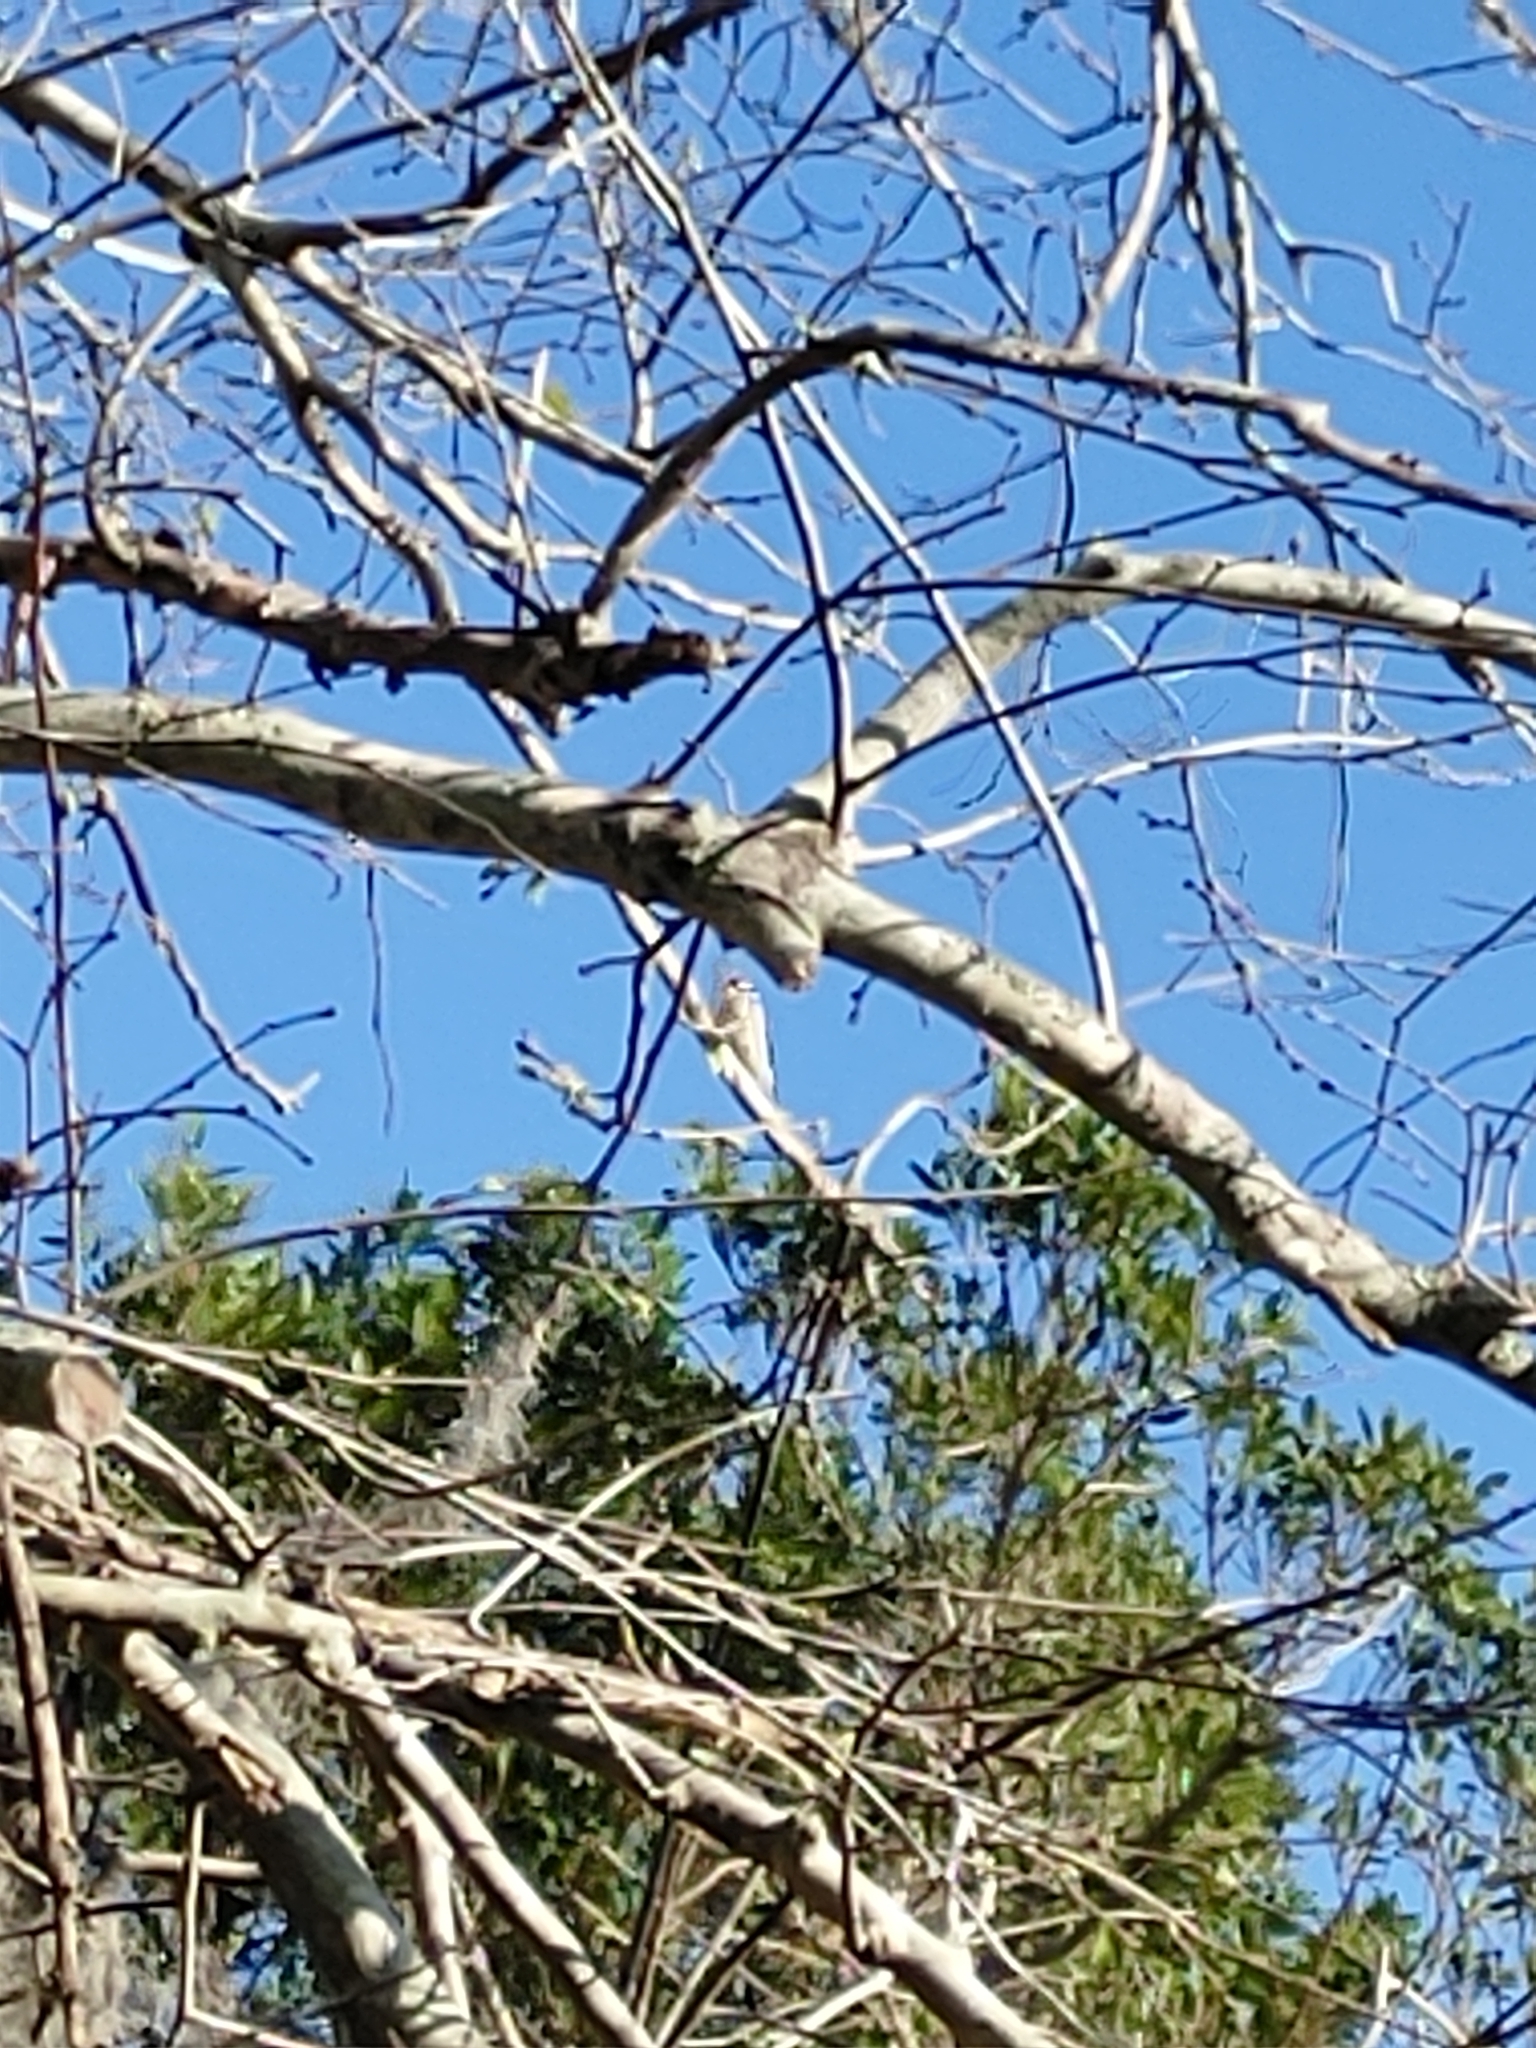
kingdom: Animalia
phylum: Chordata
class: Aves
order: Piciformes
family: Picidae
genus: Dryobates
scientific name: Dryobates pubescens
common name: Downy woodpecker
